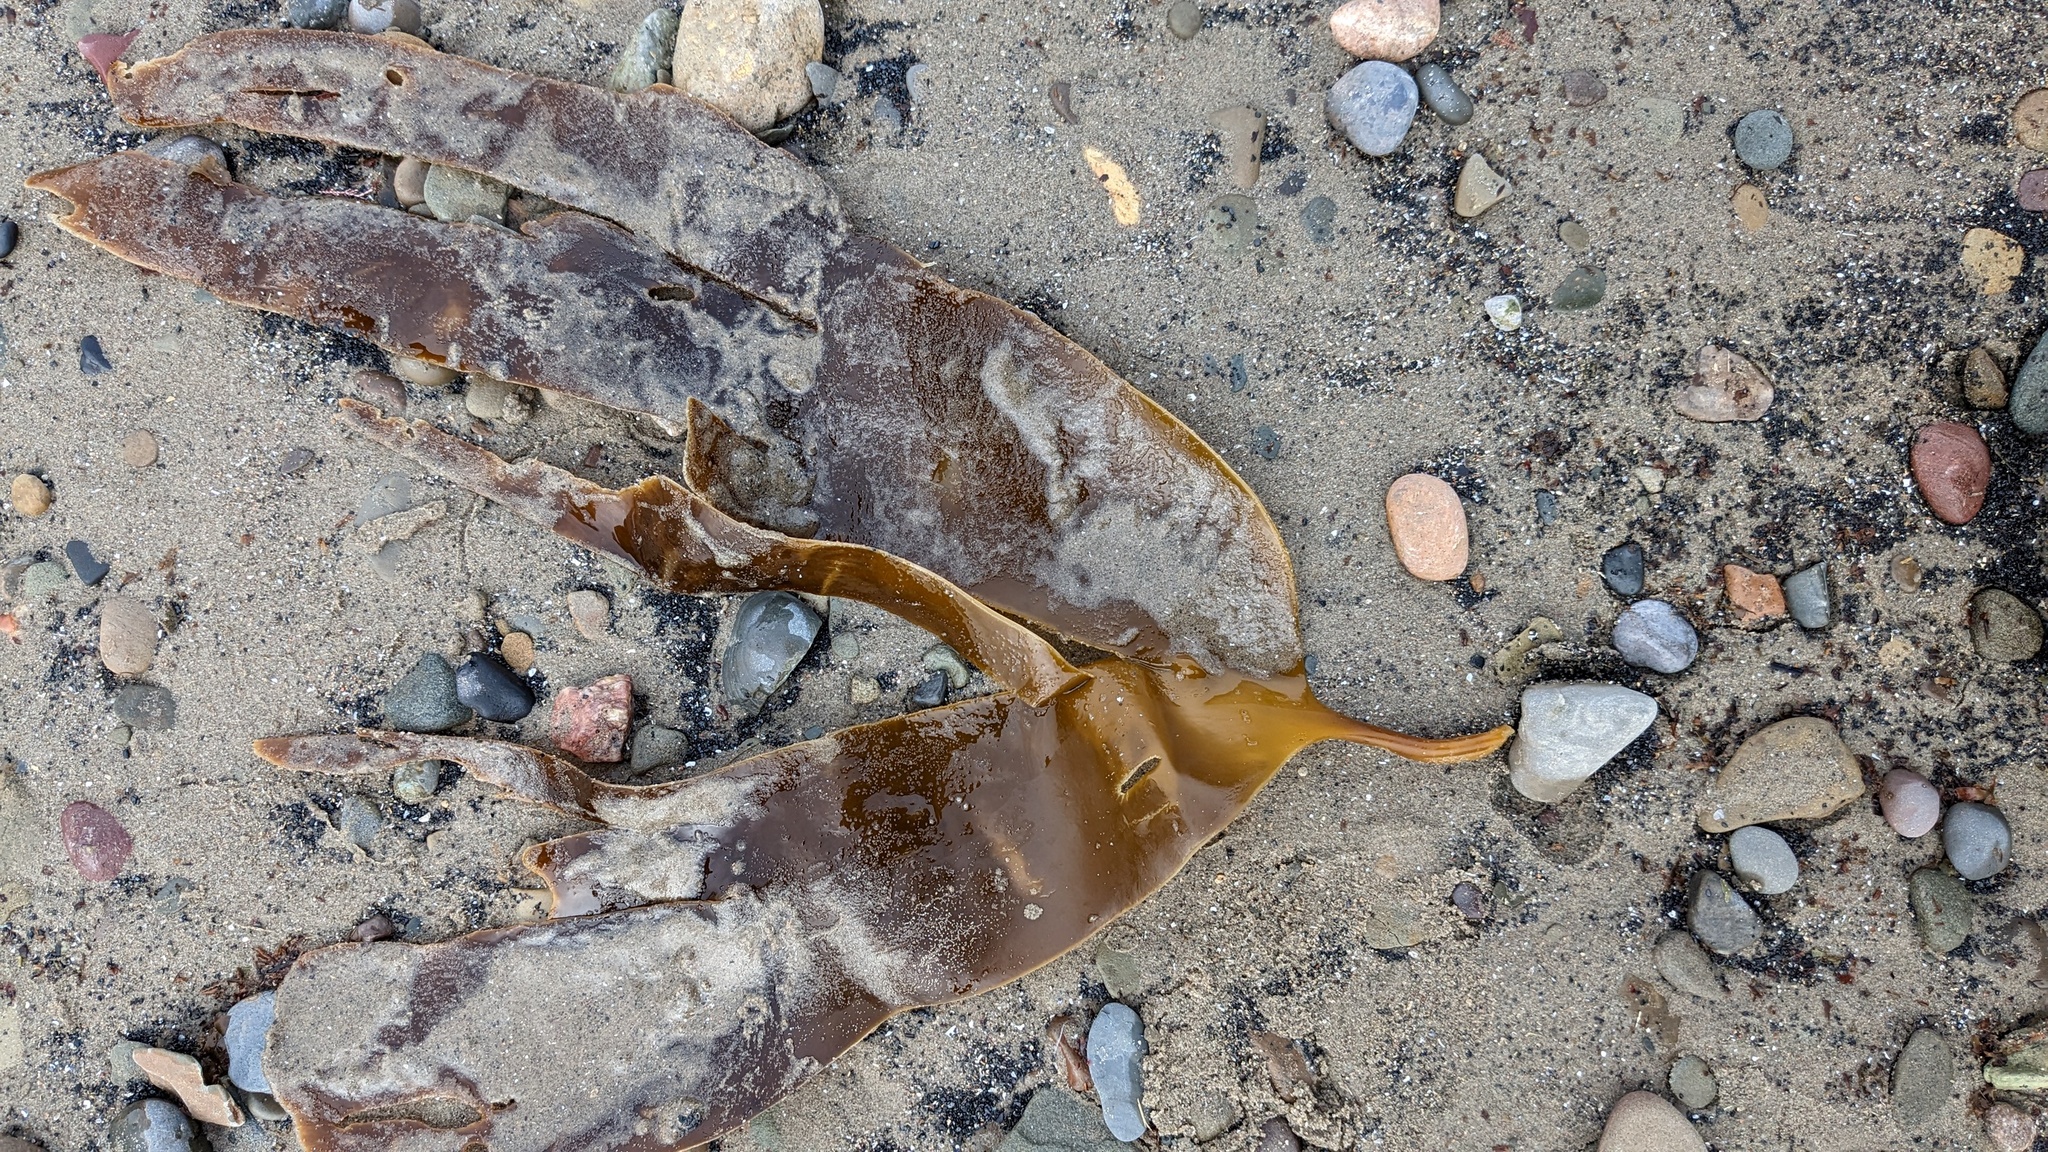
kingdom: Chromista
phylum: Ochrophyta
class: Phaeophyceae
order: Laminariales
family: Laminariaceae
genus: Laminaria
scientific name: Laminaria digitata
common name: Oarweed
